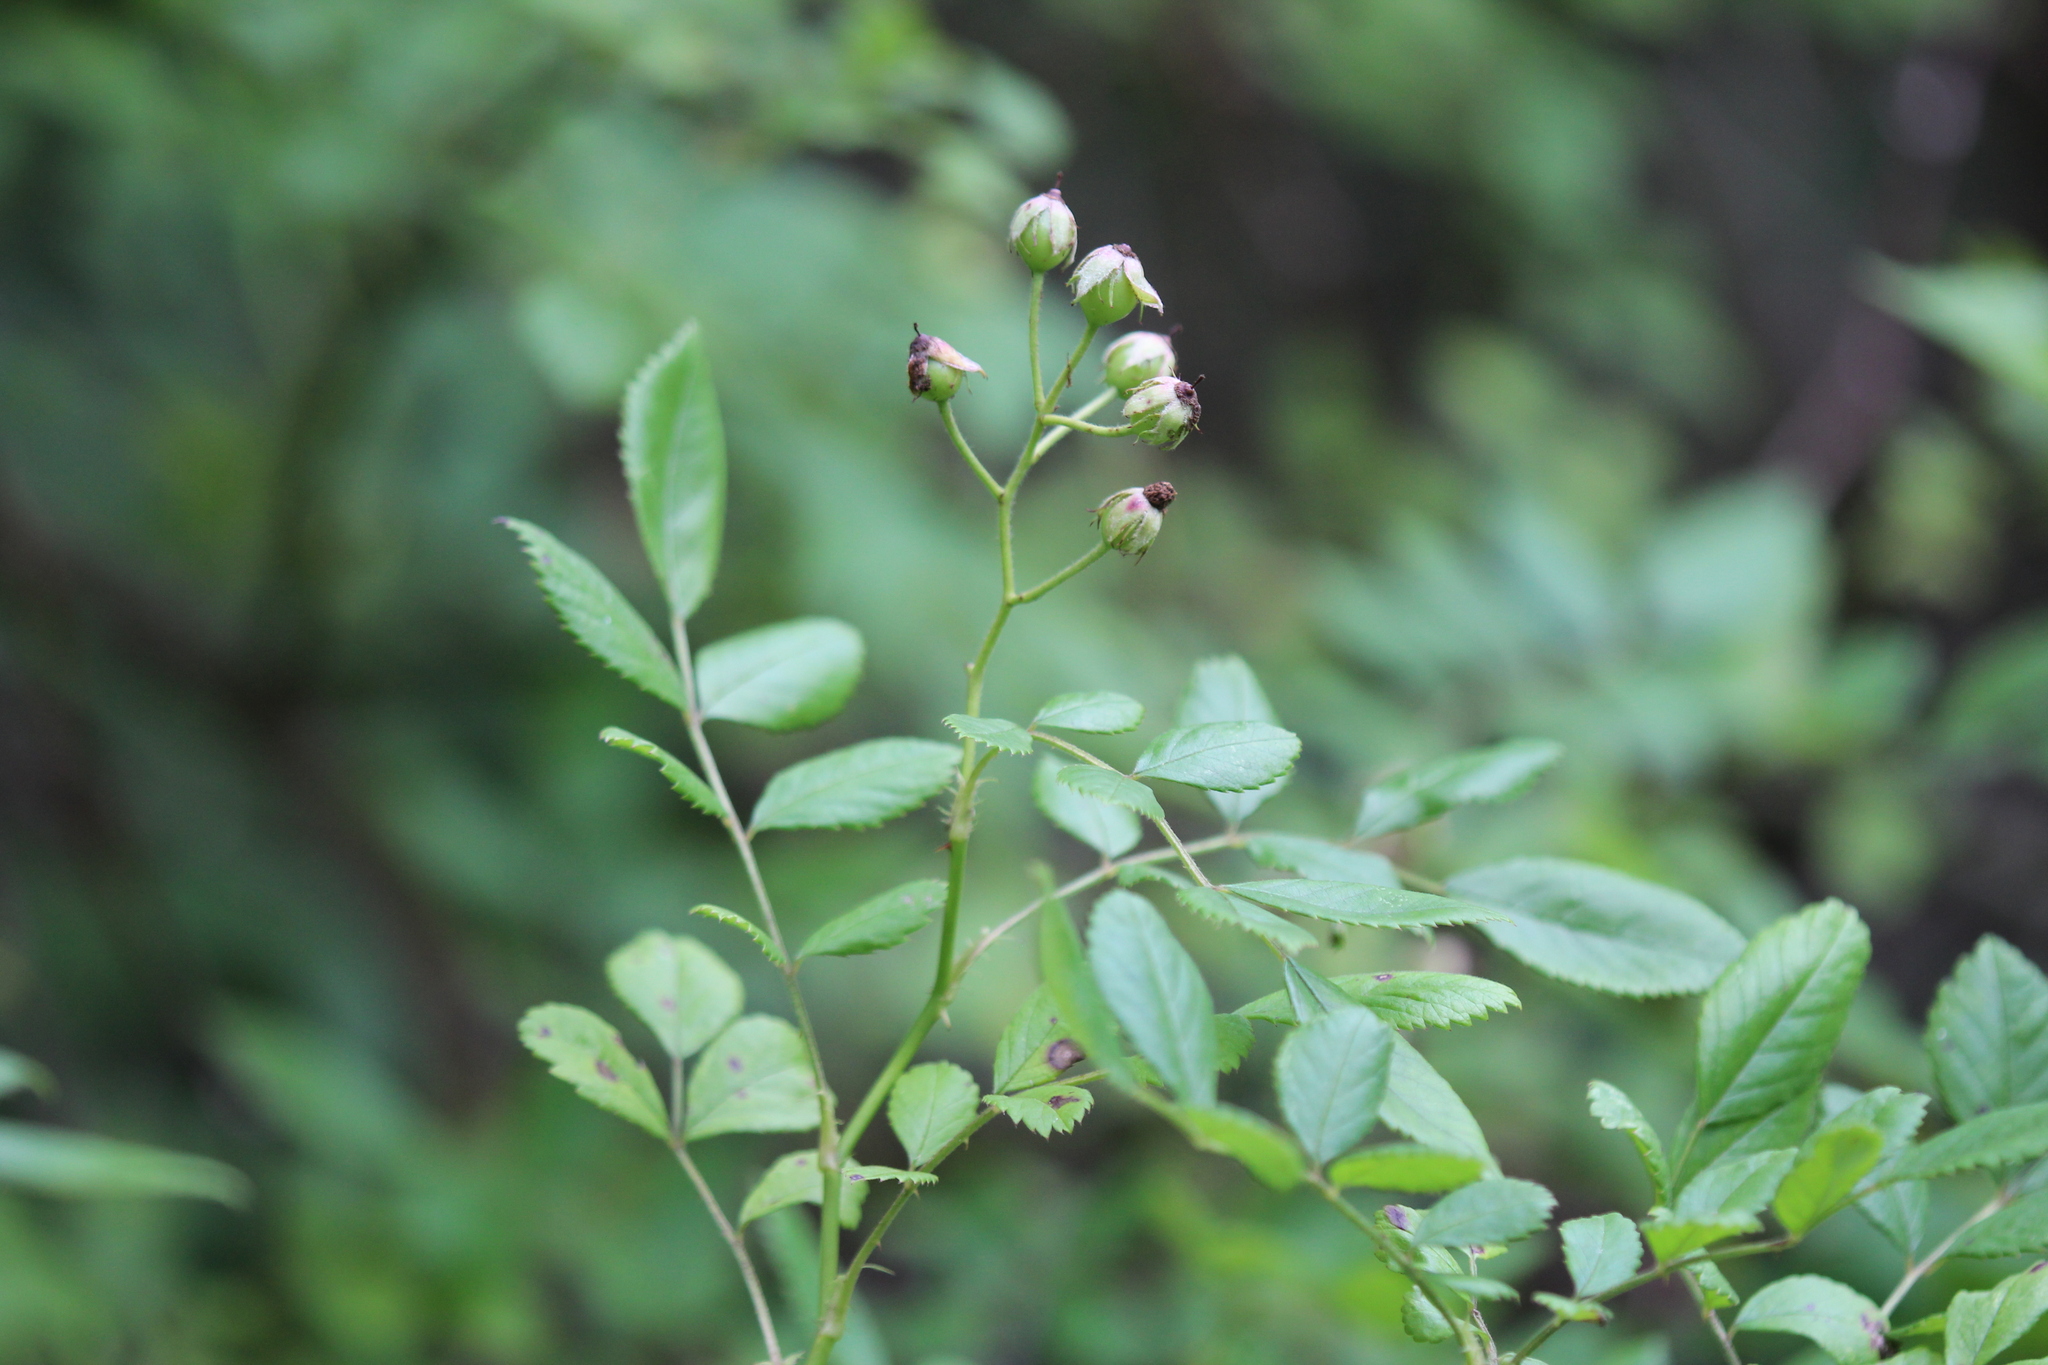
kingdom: Plantae
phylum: Tracheophyta
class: Magnoliopsida
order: Rosales
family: Rosaceae
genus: Rosa
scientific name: Rosa multiflora
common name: Multiflora rose
